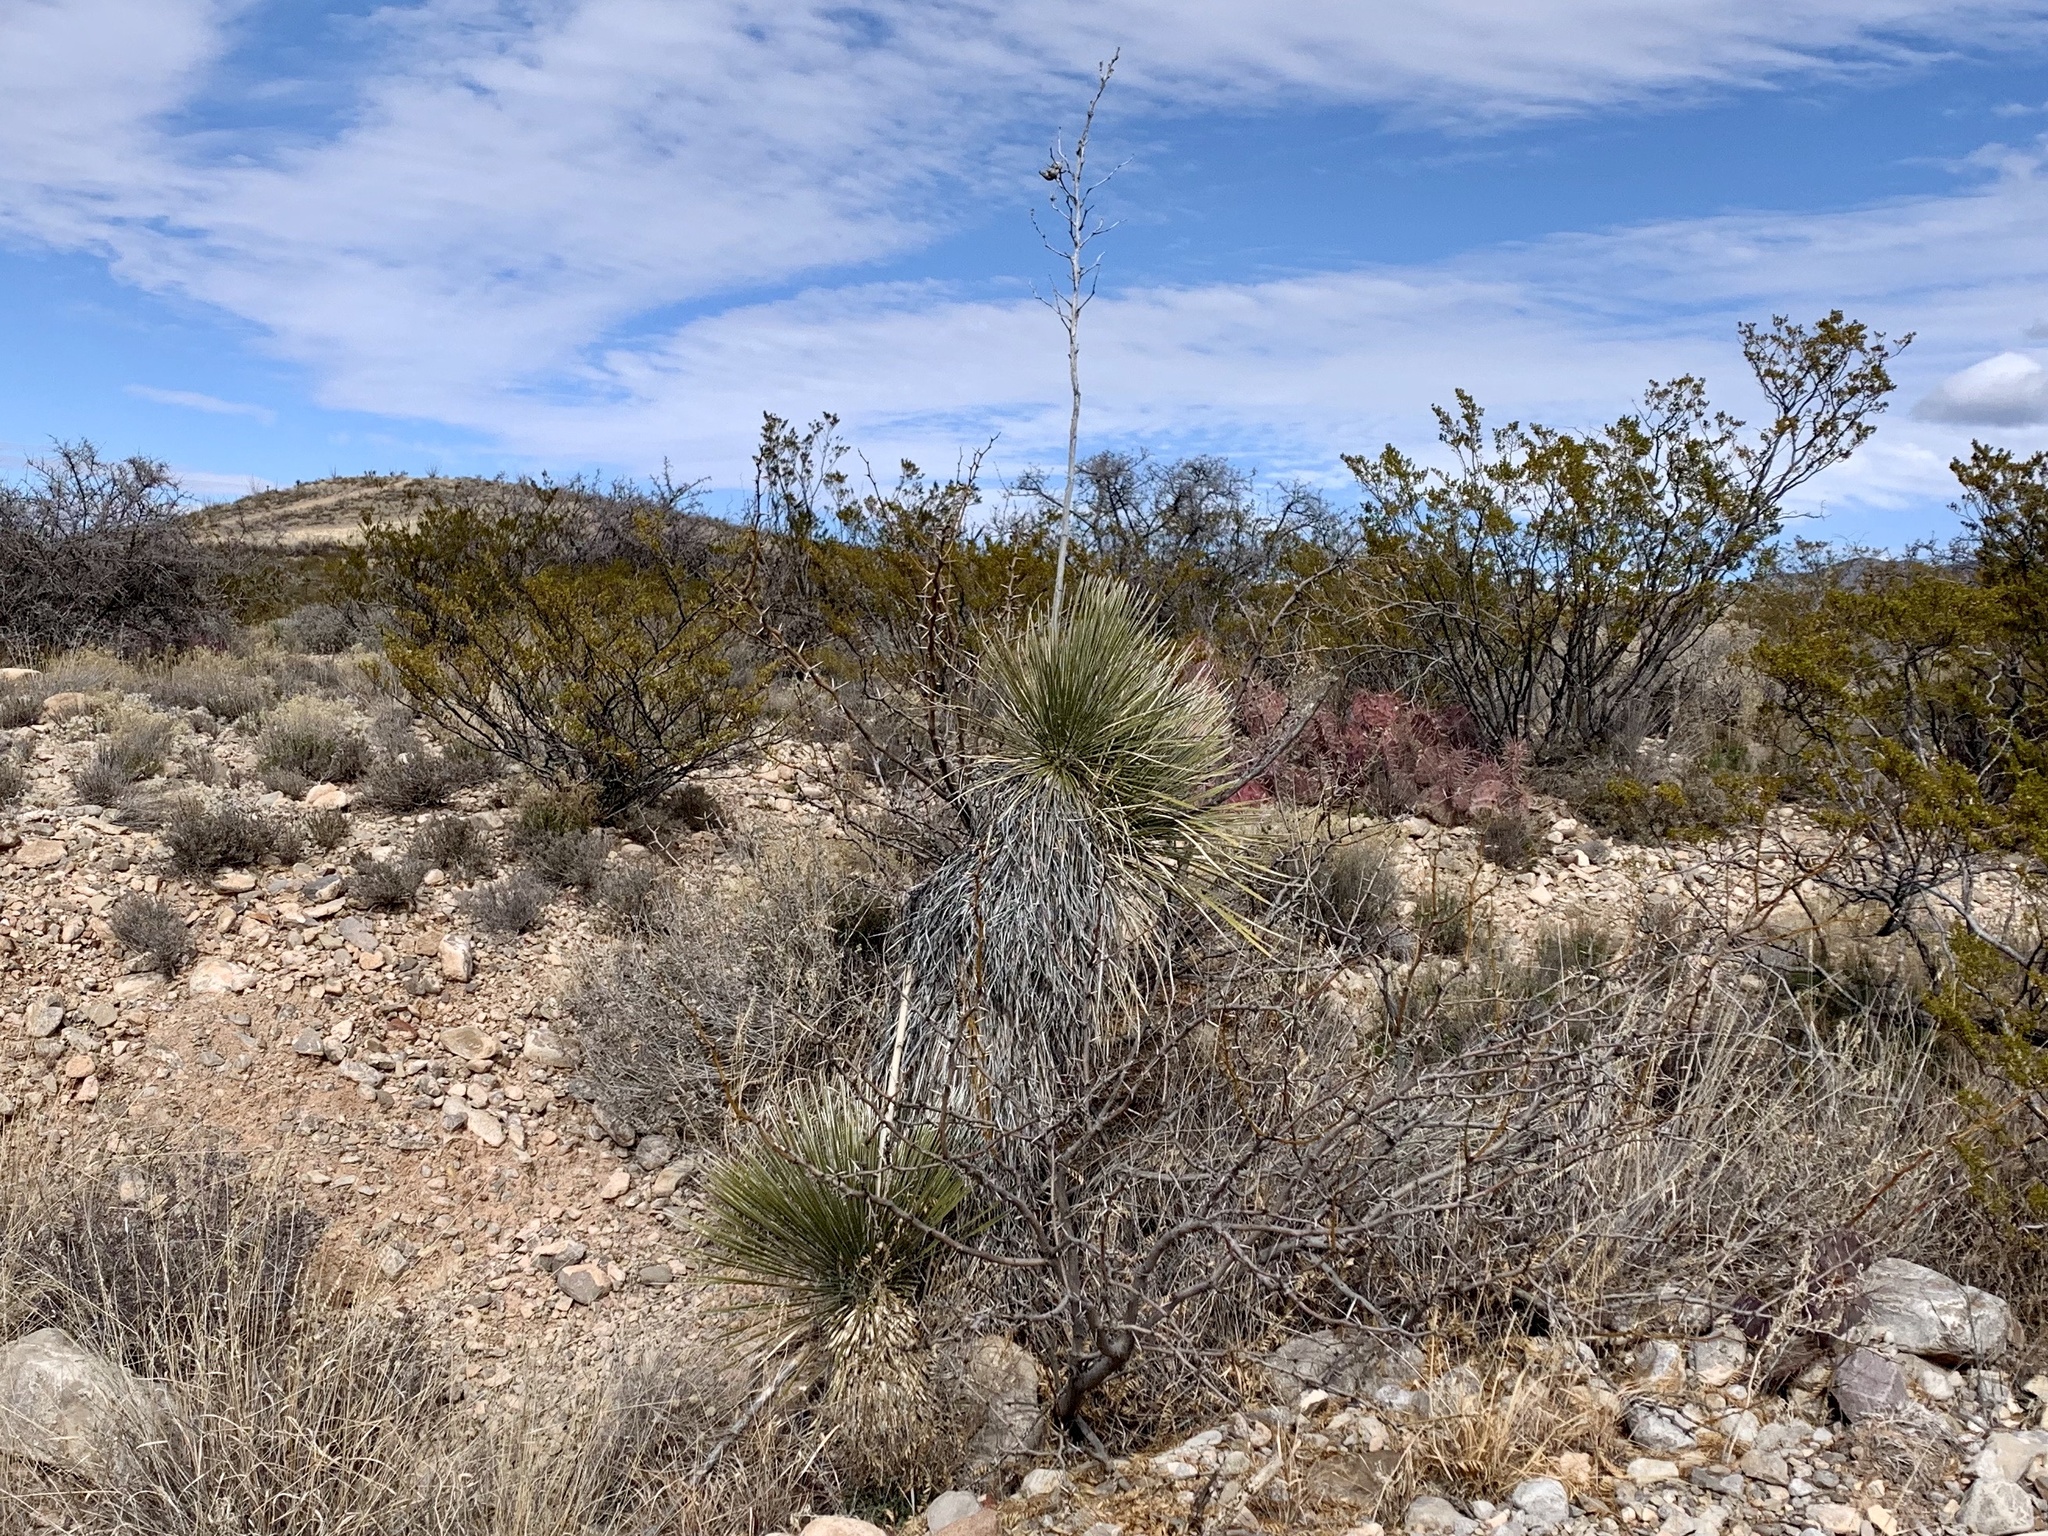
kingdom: Plantae
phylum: Tracheophyta
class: Liliopsida
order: Asparagales
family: Asparagaceae
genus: Yucca
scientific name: Yucca elata
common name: Palmella
